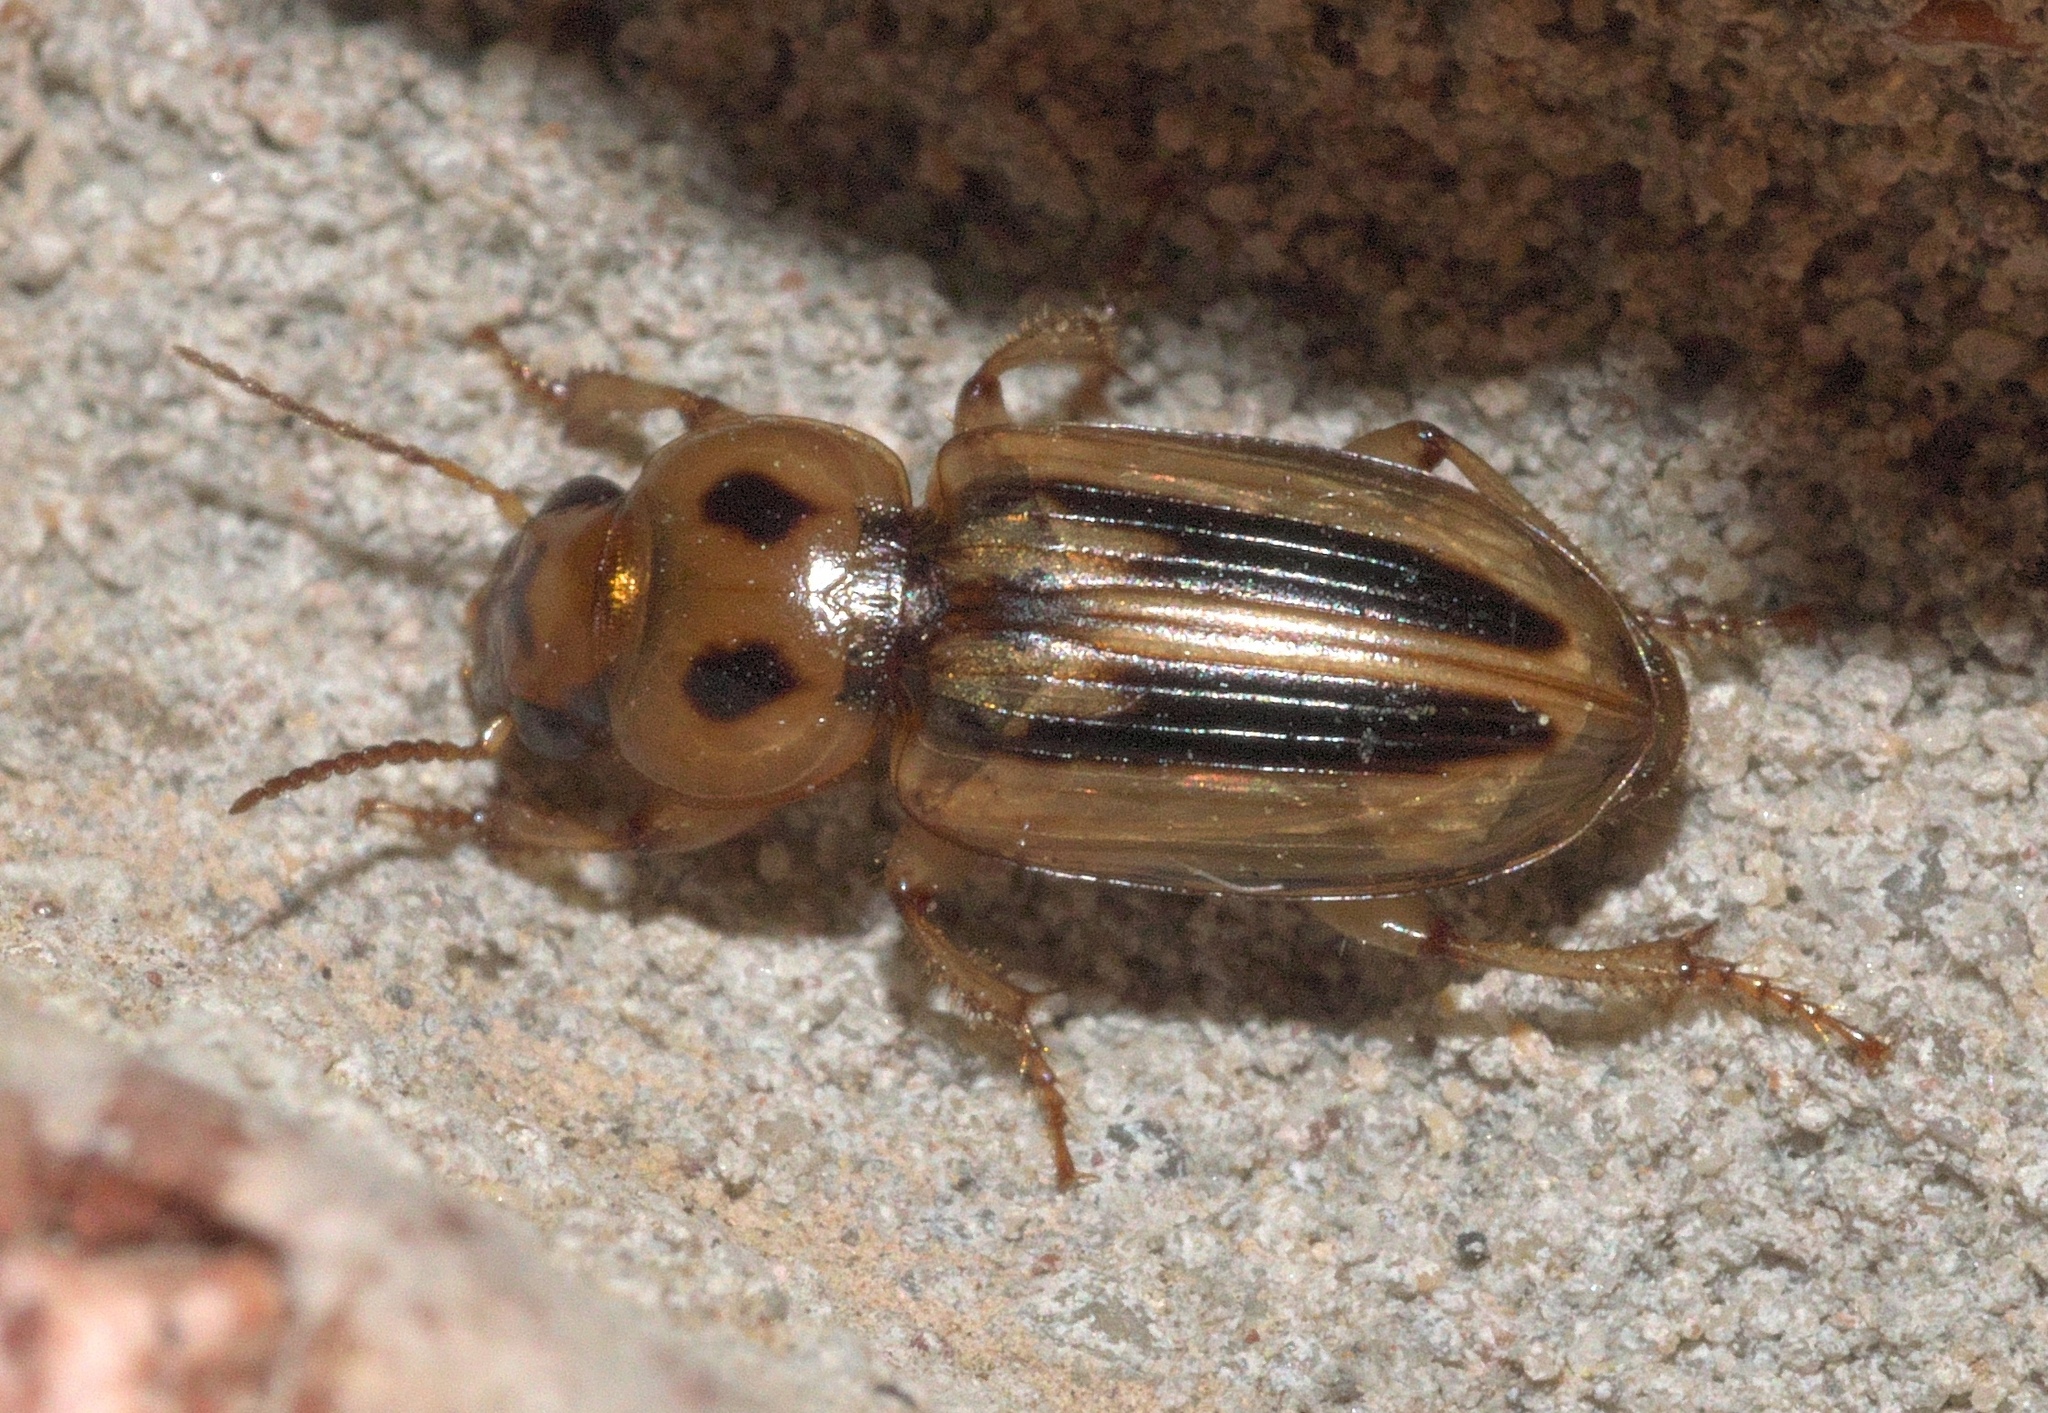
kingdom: Animalia
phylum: Arthropoda
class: Insecta
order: Coleoptera
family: Carabidae
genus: Stenolophus
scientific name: Stenolophus lineola
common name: Lined stenolophus
